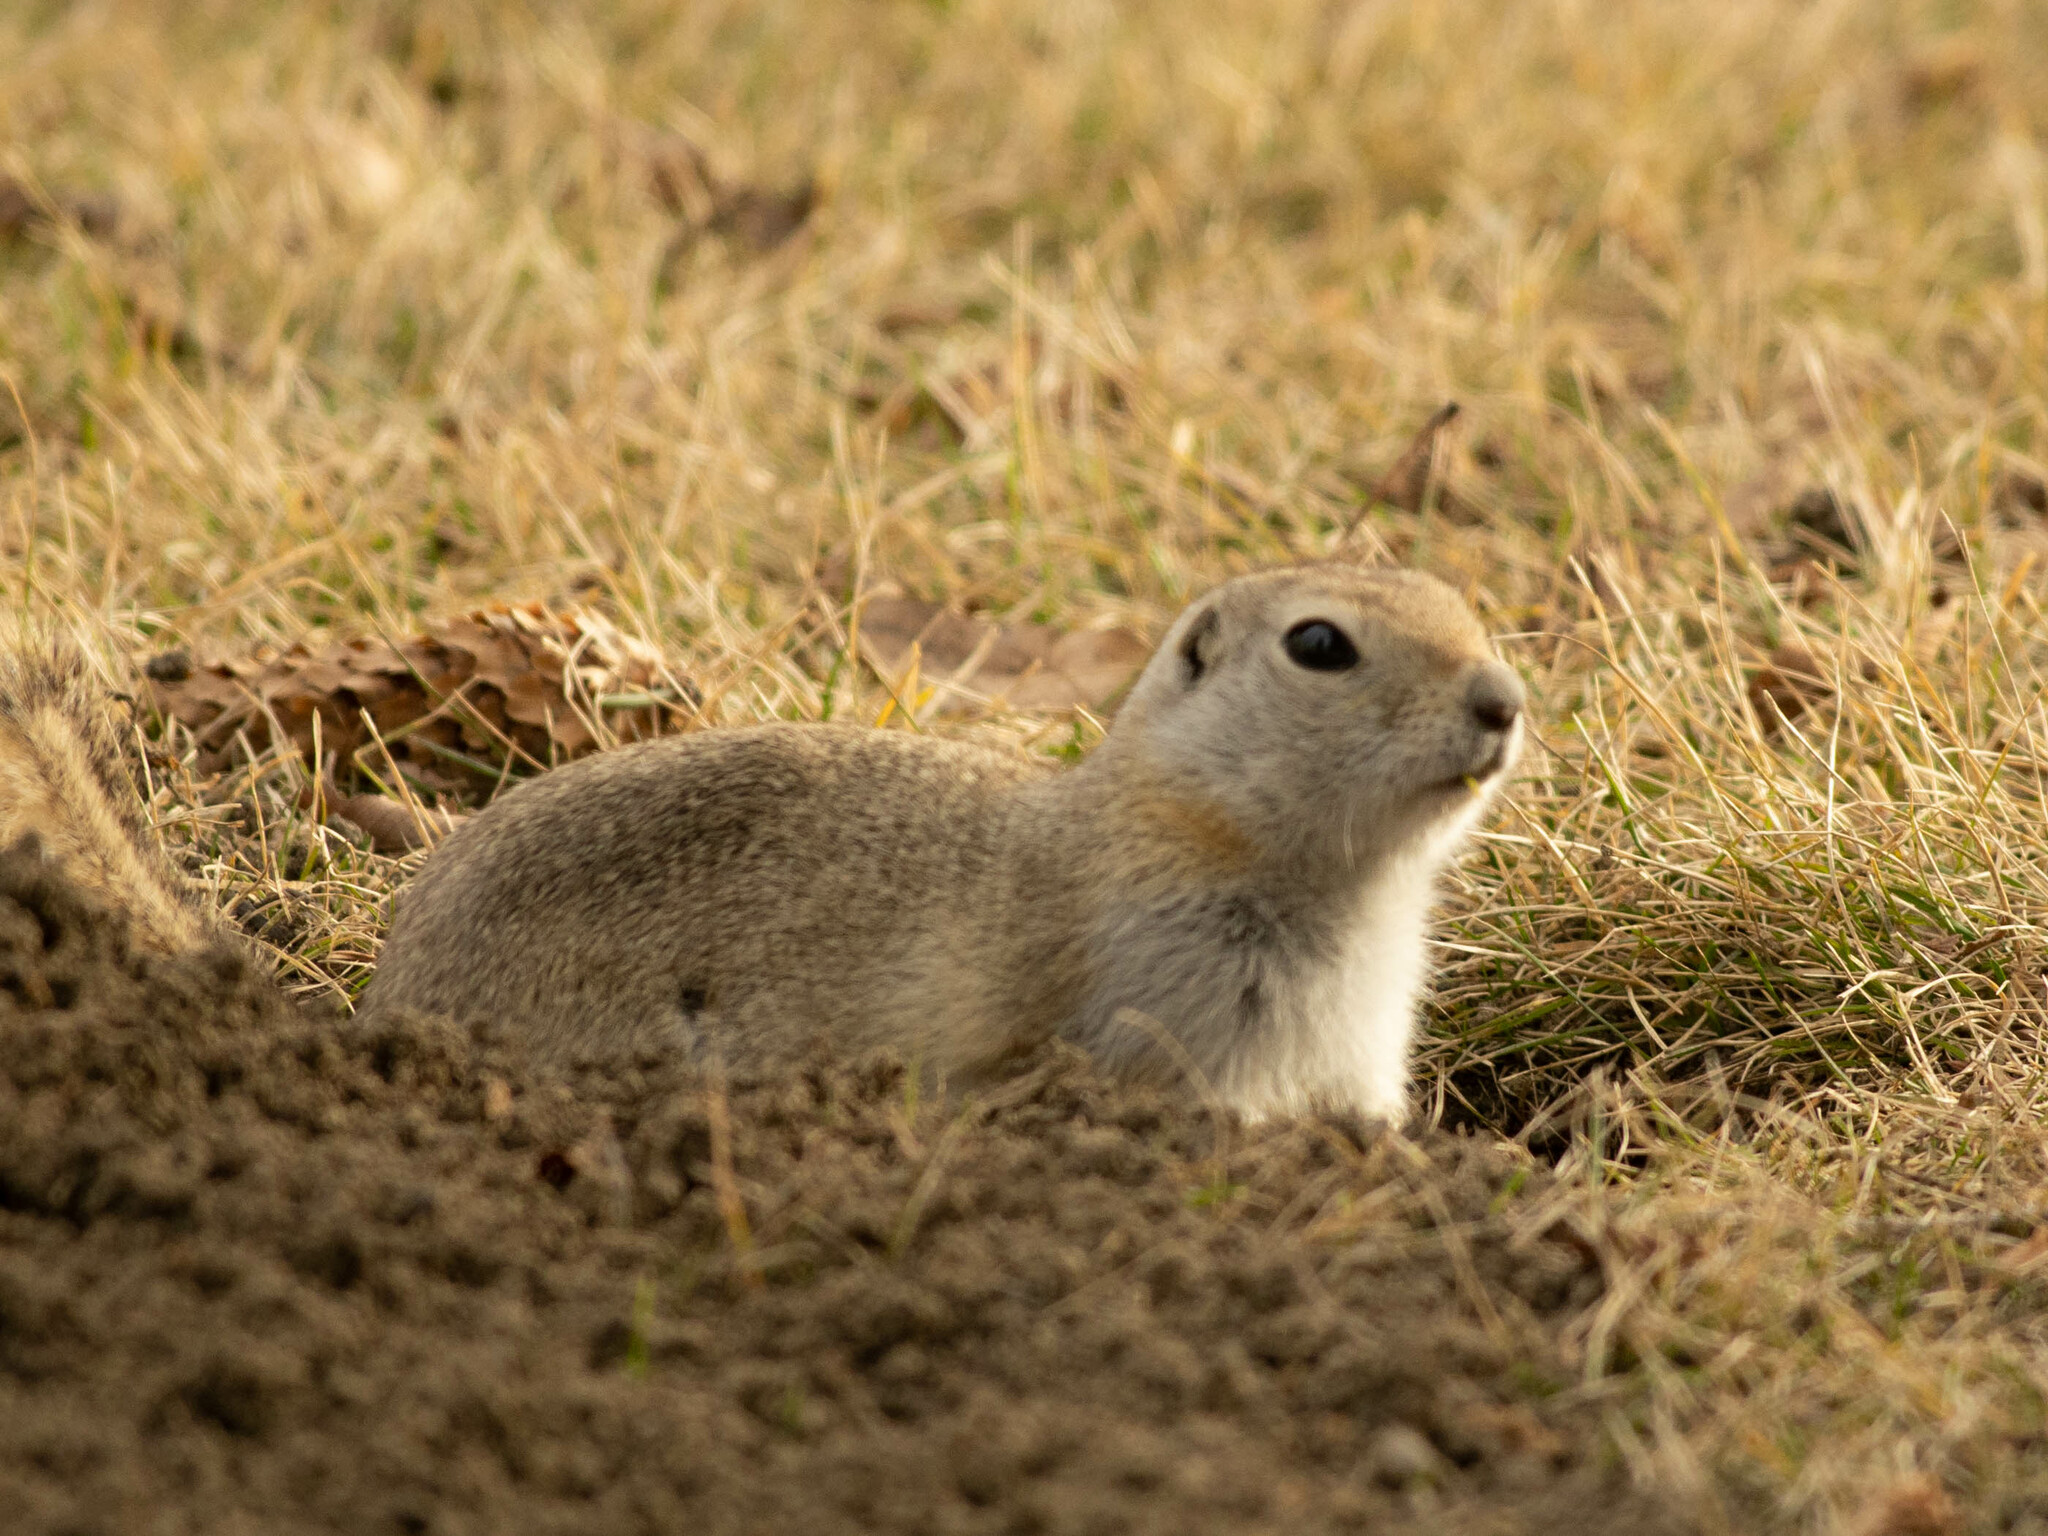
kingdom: Animalia
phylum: Chordata
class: Mammalia
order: Rodentia
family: Sciuridae
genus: Urocitellus
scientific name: Urocitellus richardsonii
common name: Richardson's ground squirrel
